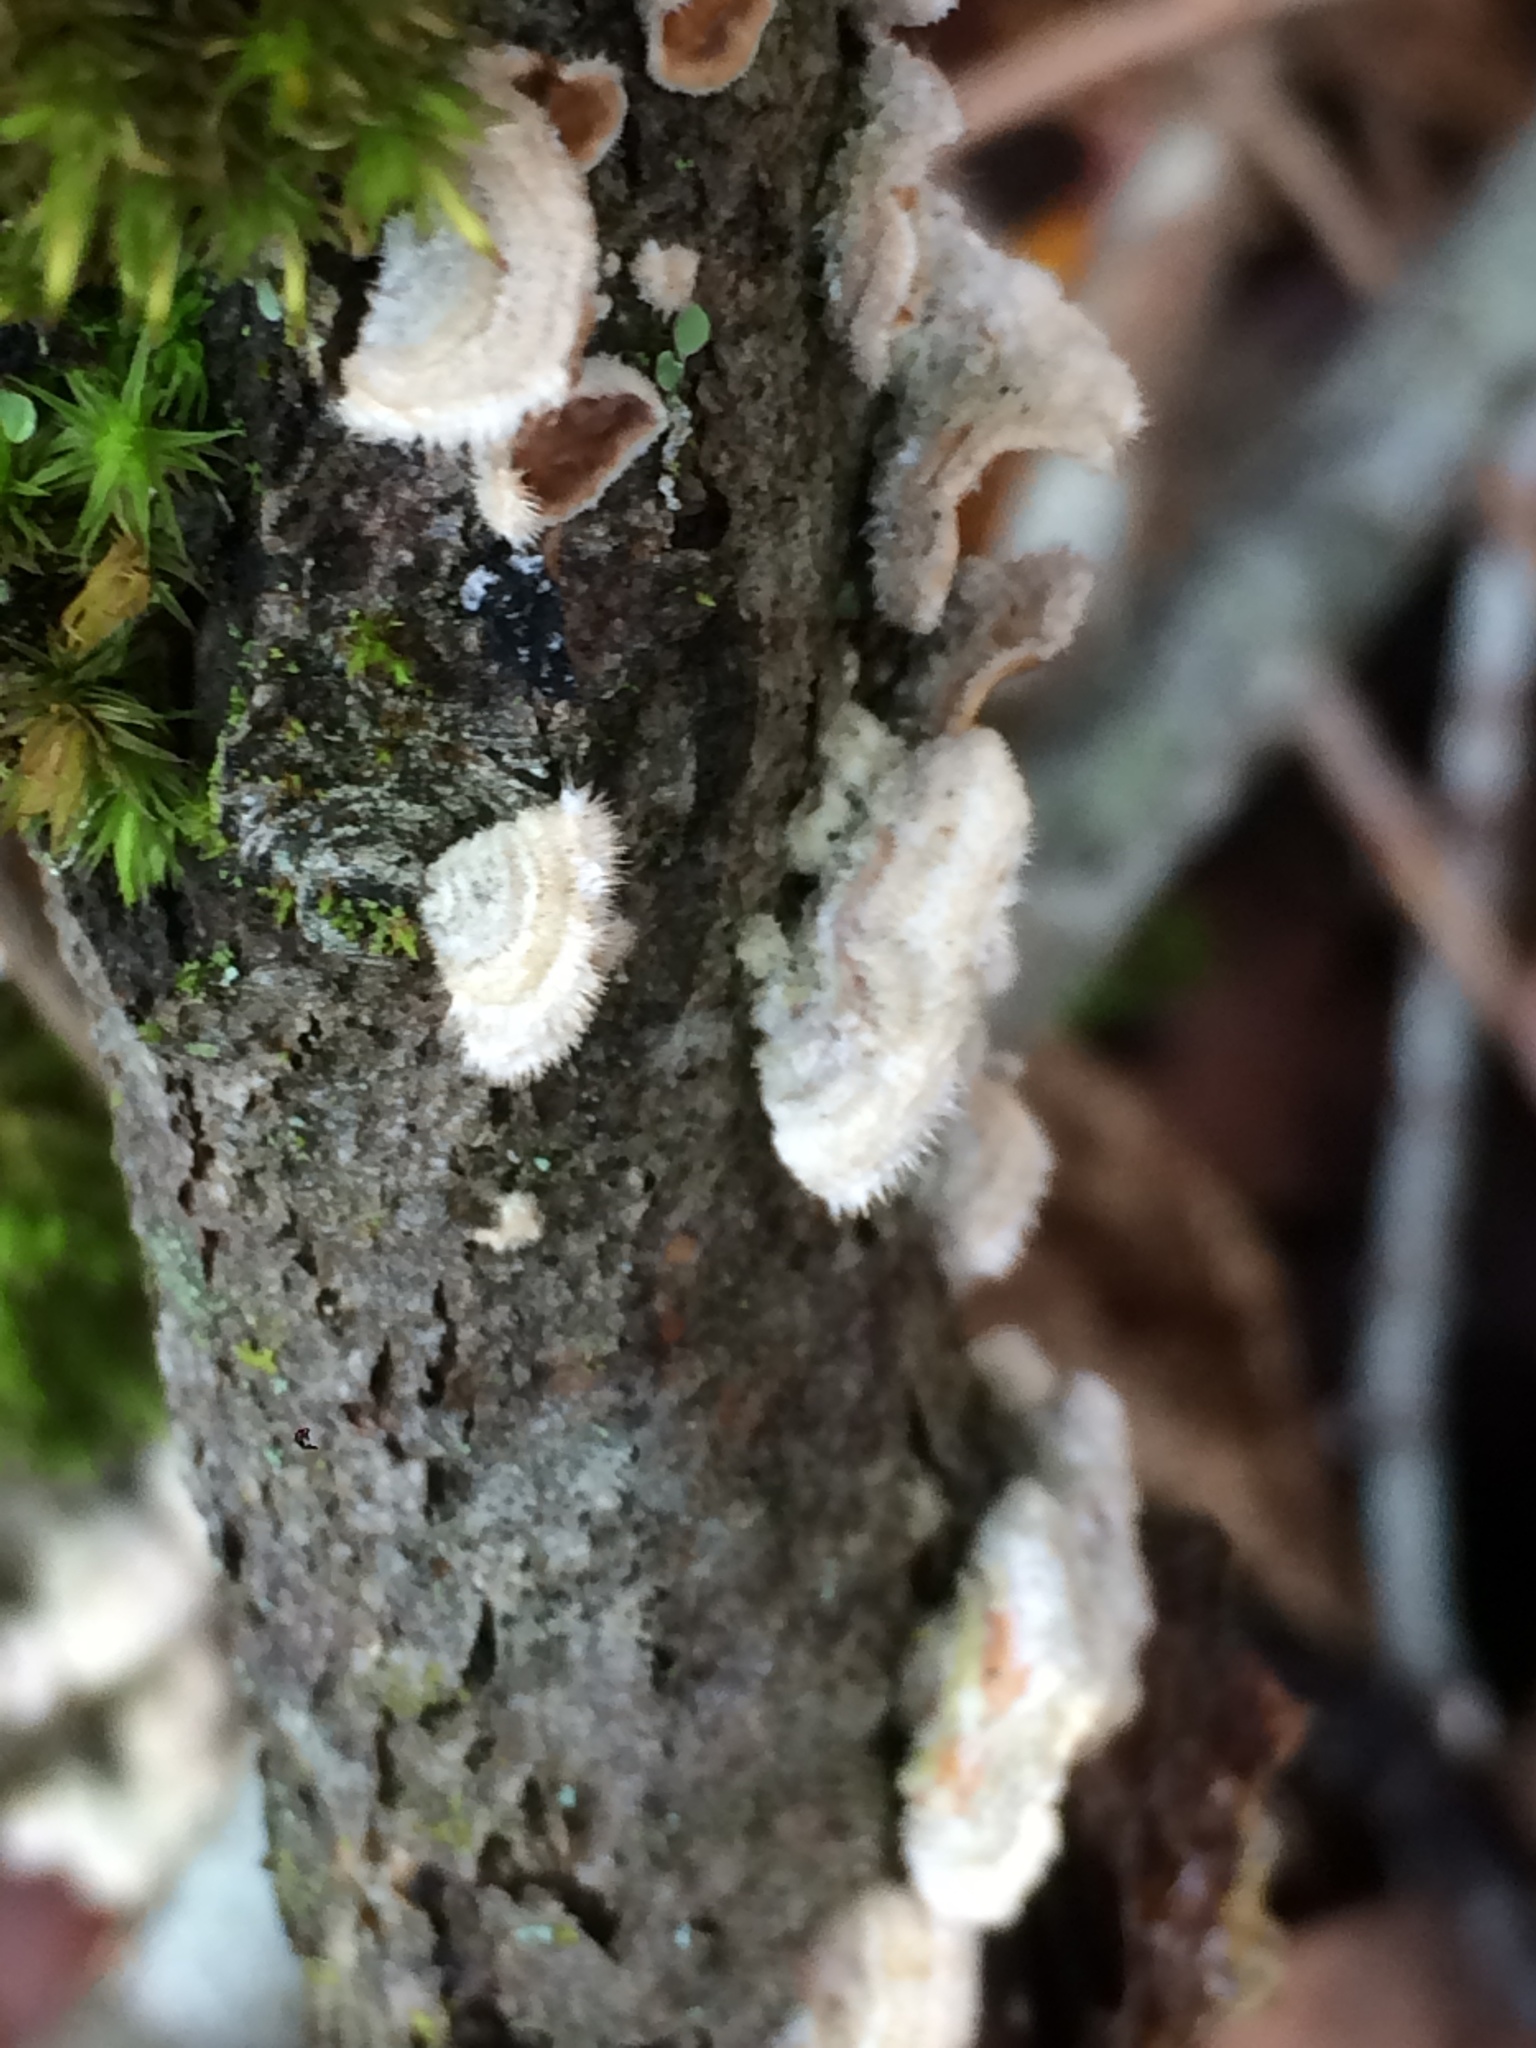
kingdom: Fungi
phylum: Basidiomycota
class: Agaricomycetes
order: Russulales
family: Stereaceae
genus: Stereum
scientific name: Stereum ochraceoflavum
